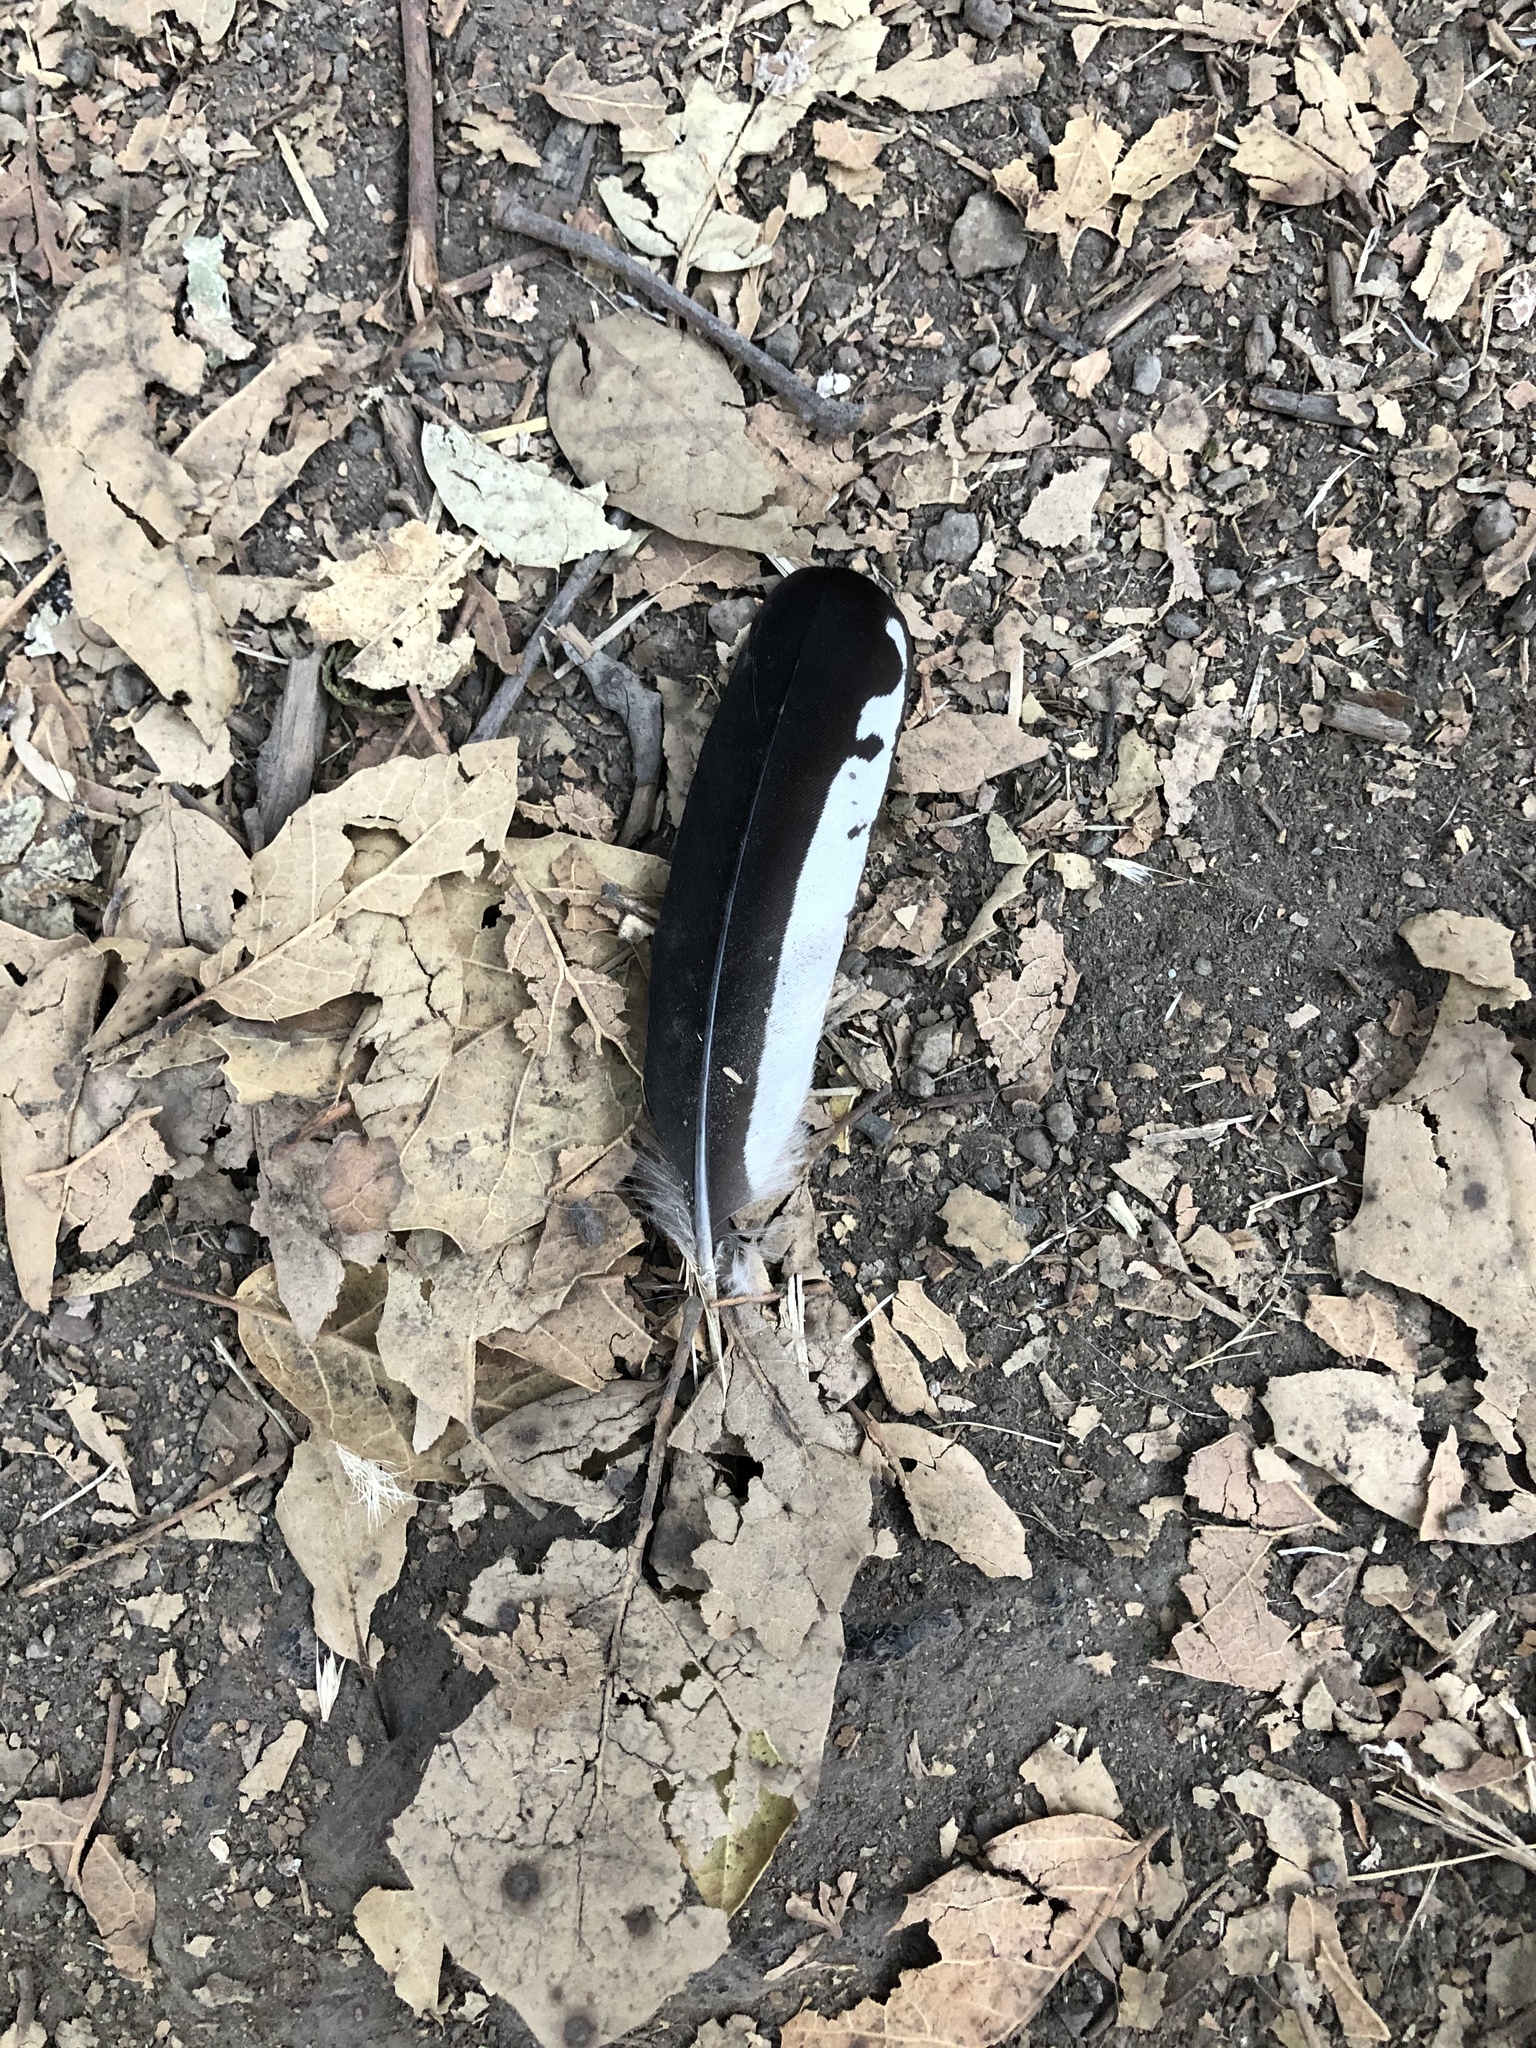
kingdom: Animalia
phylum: Chordata
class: Aves
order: Piciformes
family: Picidae
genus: Melanerpes
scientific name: Melanerpes formicivorus
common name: Acorn woodpecker
